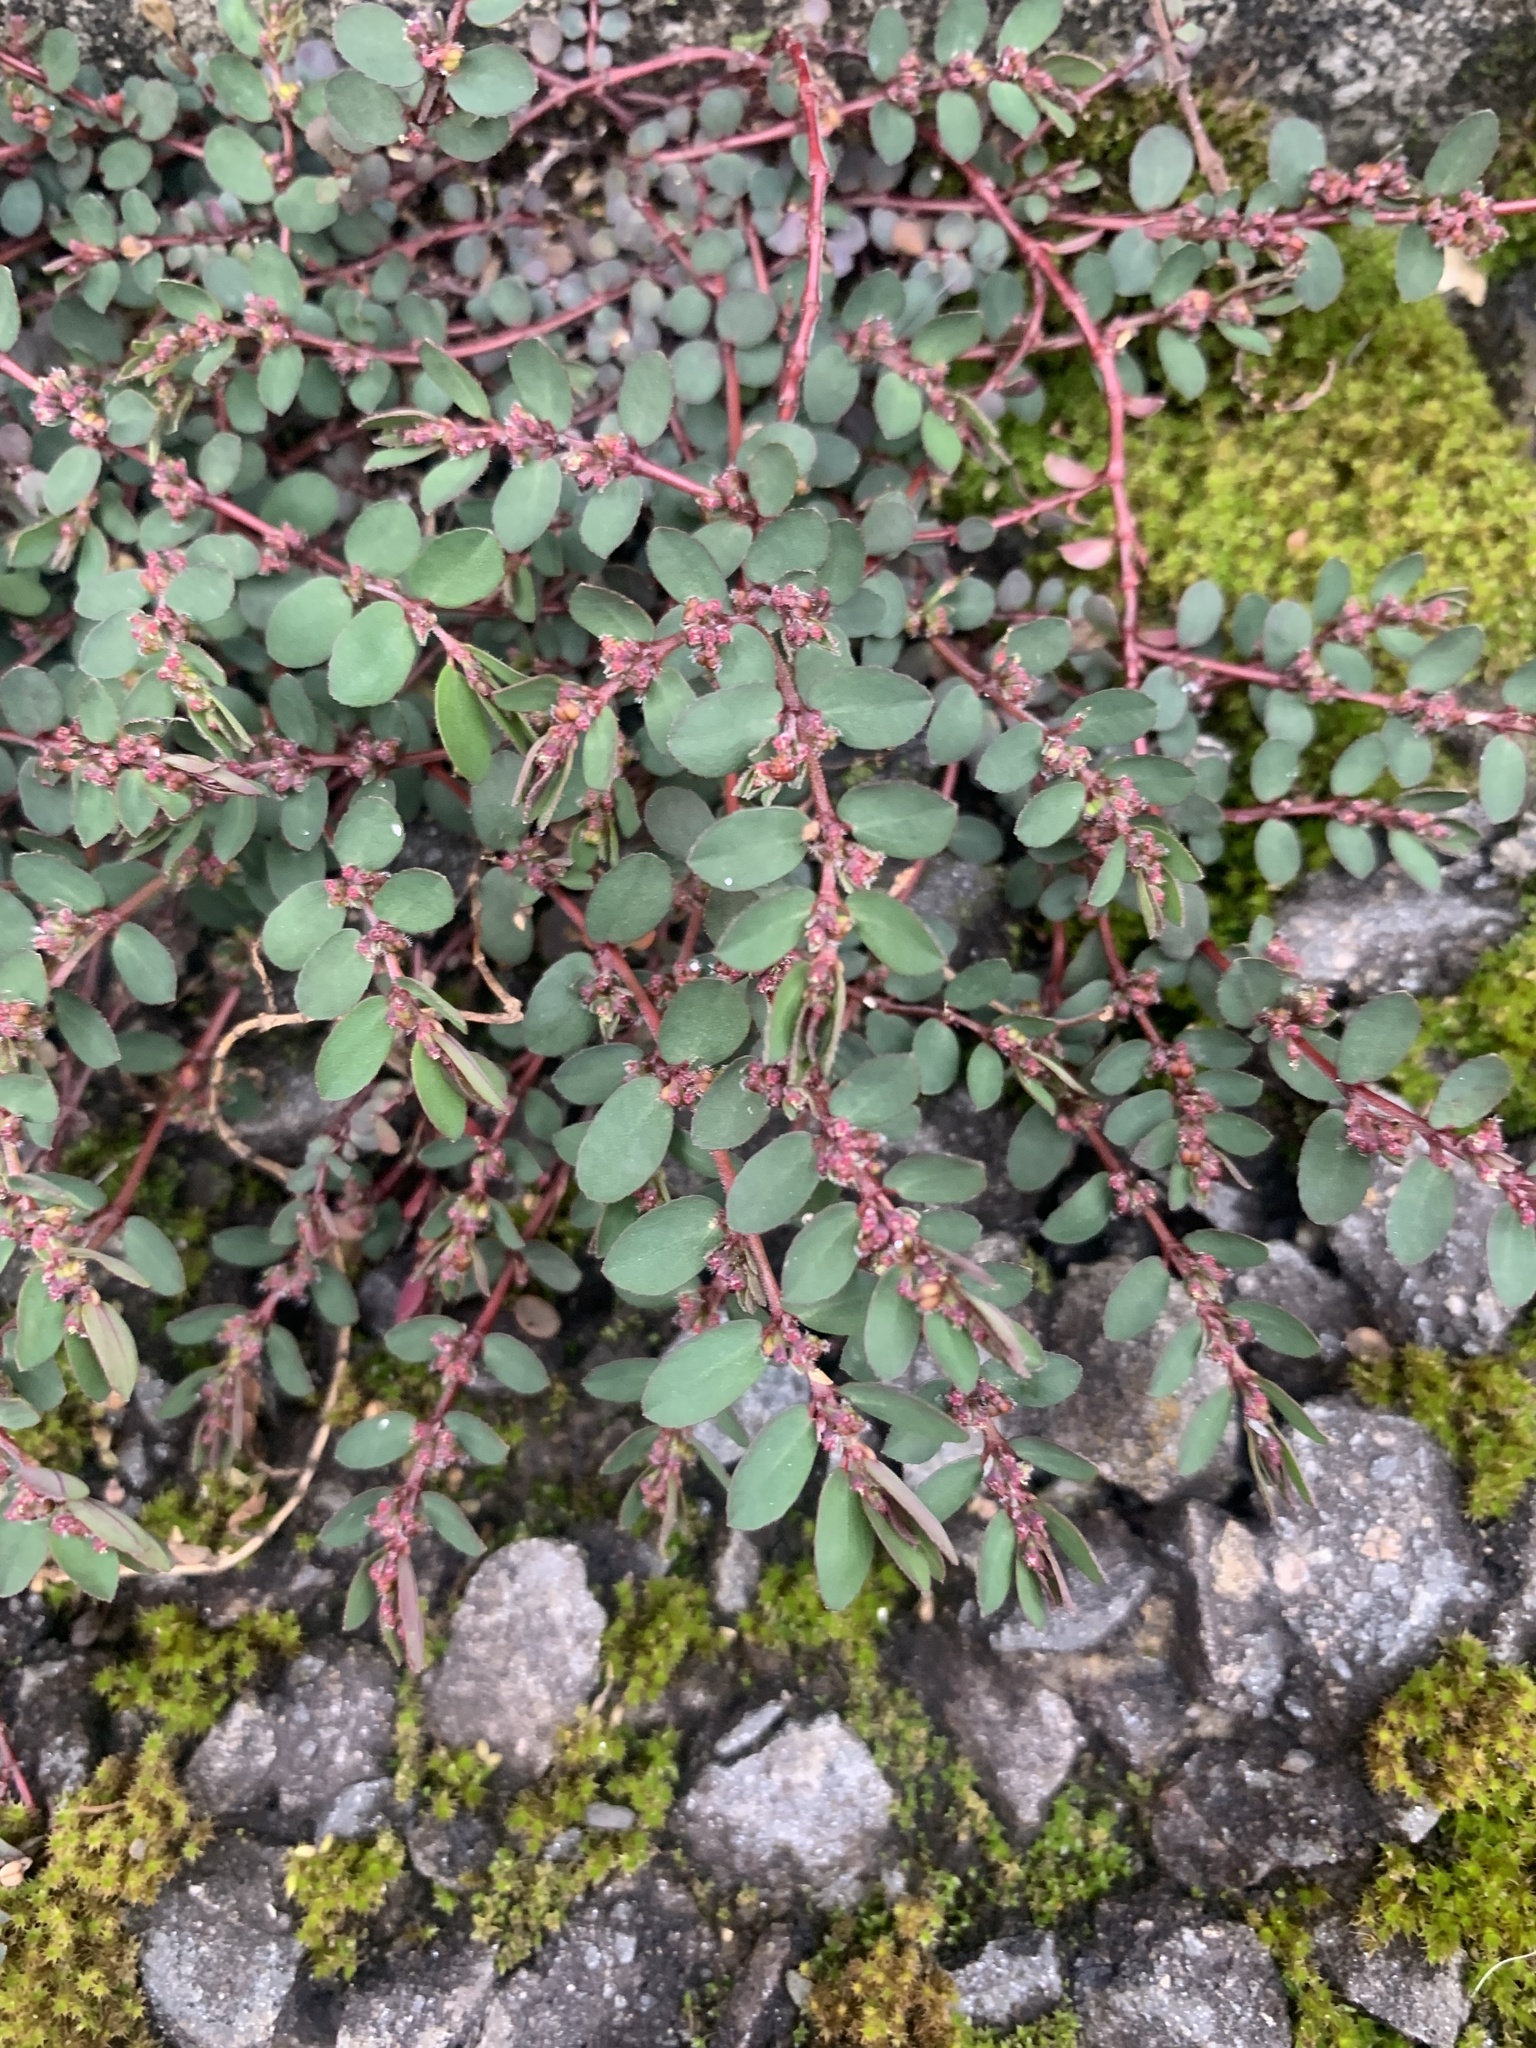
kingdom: Plantae
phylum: Tracheophyta
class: Magnoliopsida
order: Malpighiales
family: Euphorbiaceae
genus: Euphorbia
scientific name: Euphorbia prostrata
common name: Prostrate sandmat
